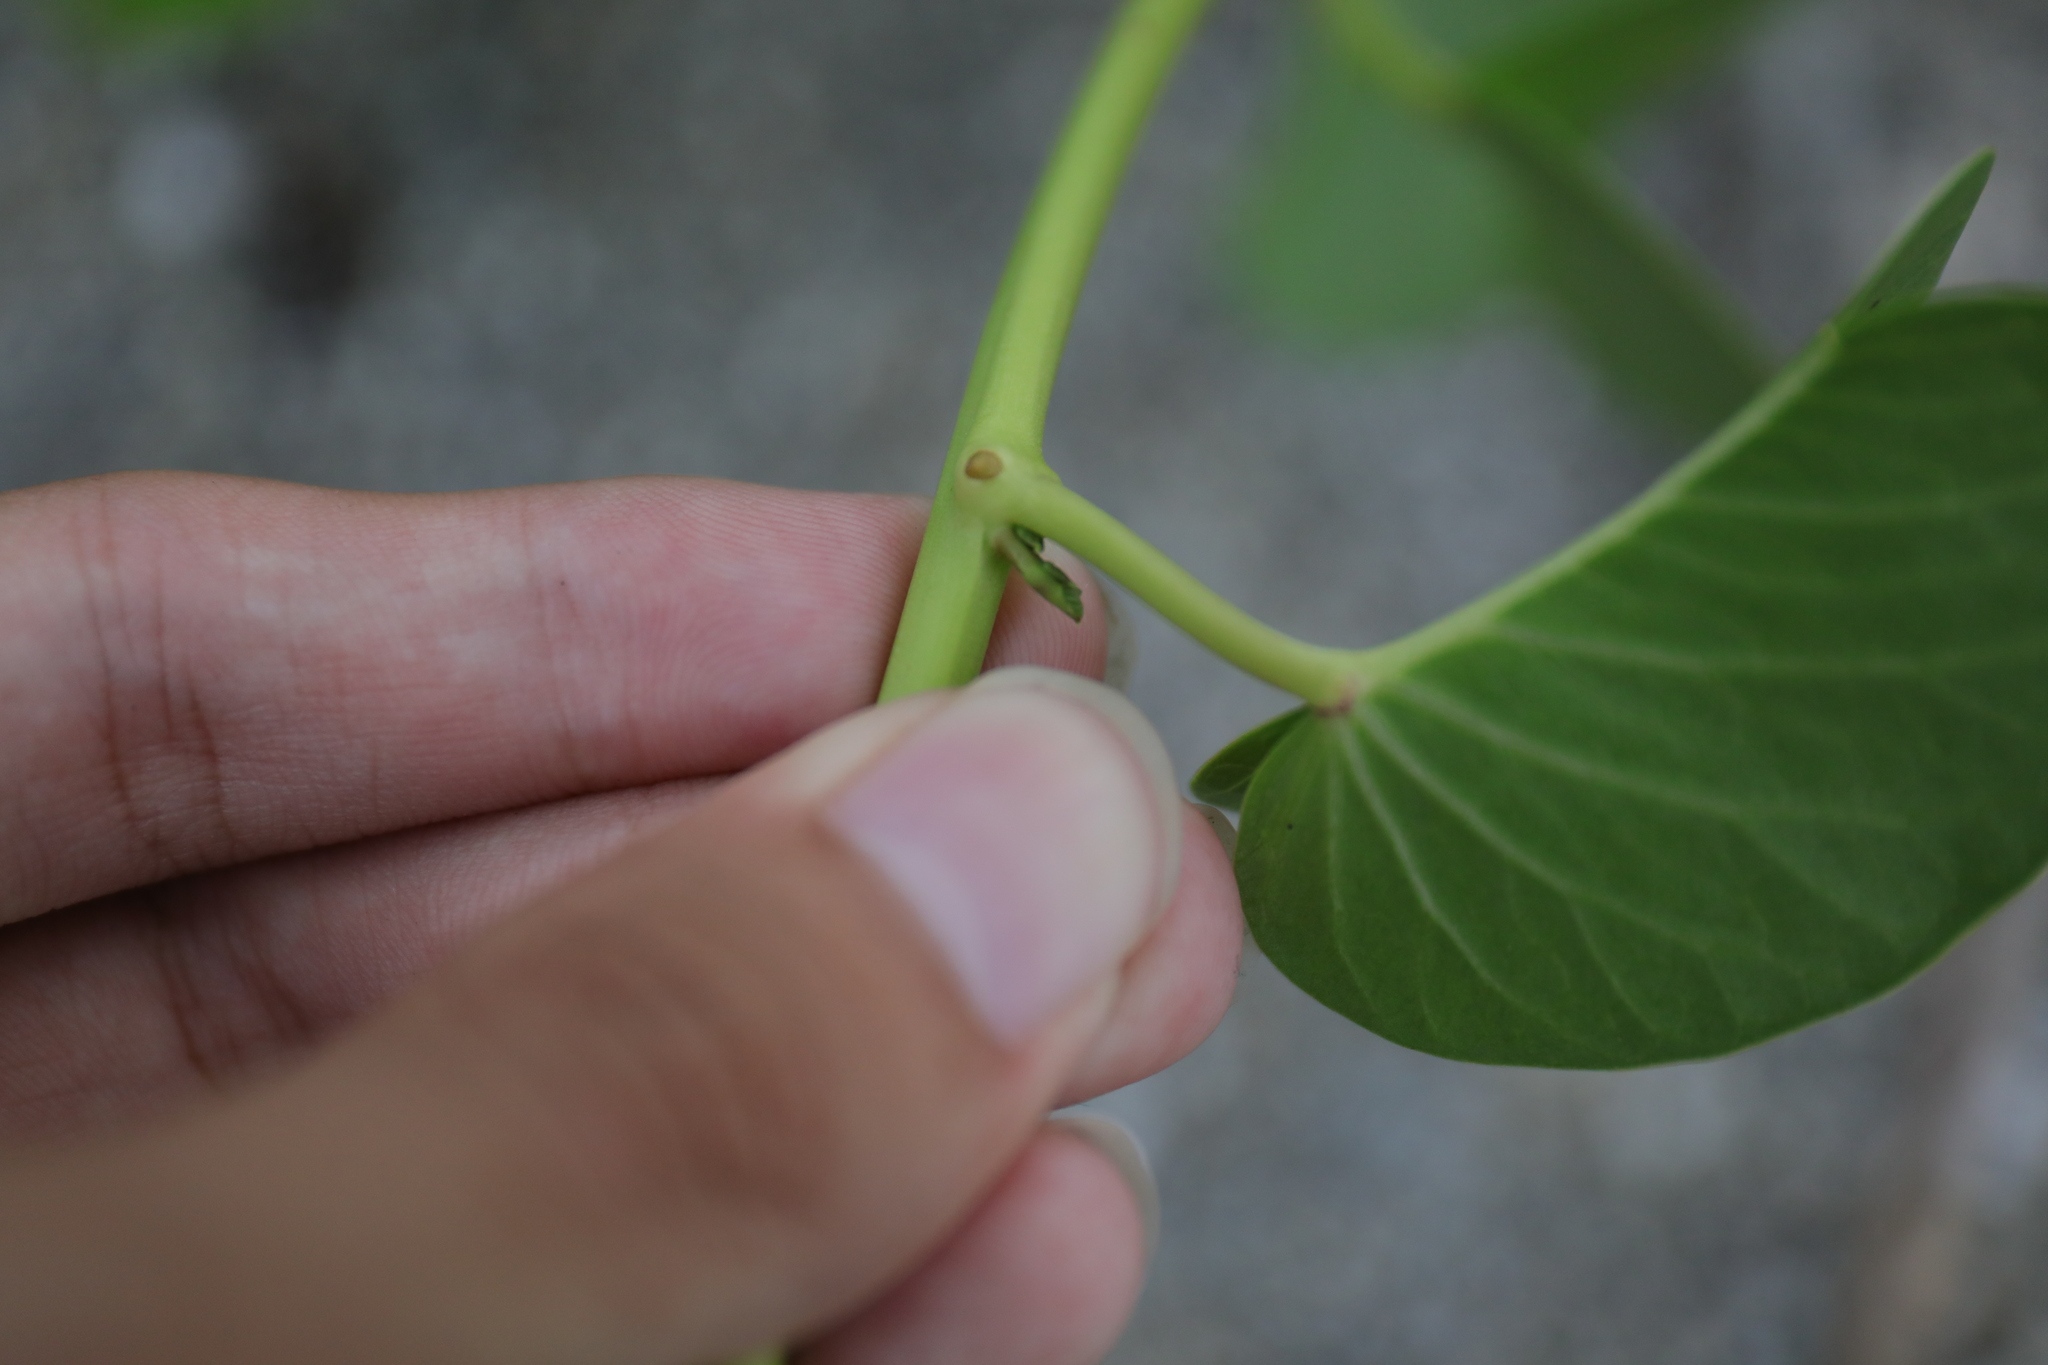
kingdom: Plantae
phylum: Tracheophyta
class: Magnoliopsida
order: Solanales
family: Convolvulaceae
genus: Ipomoea
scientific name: Ipomoea pes-caprae
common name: Beach morning glory
